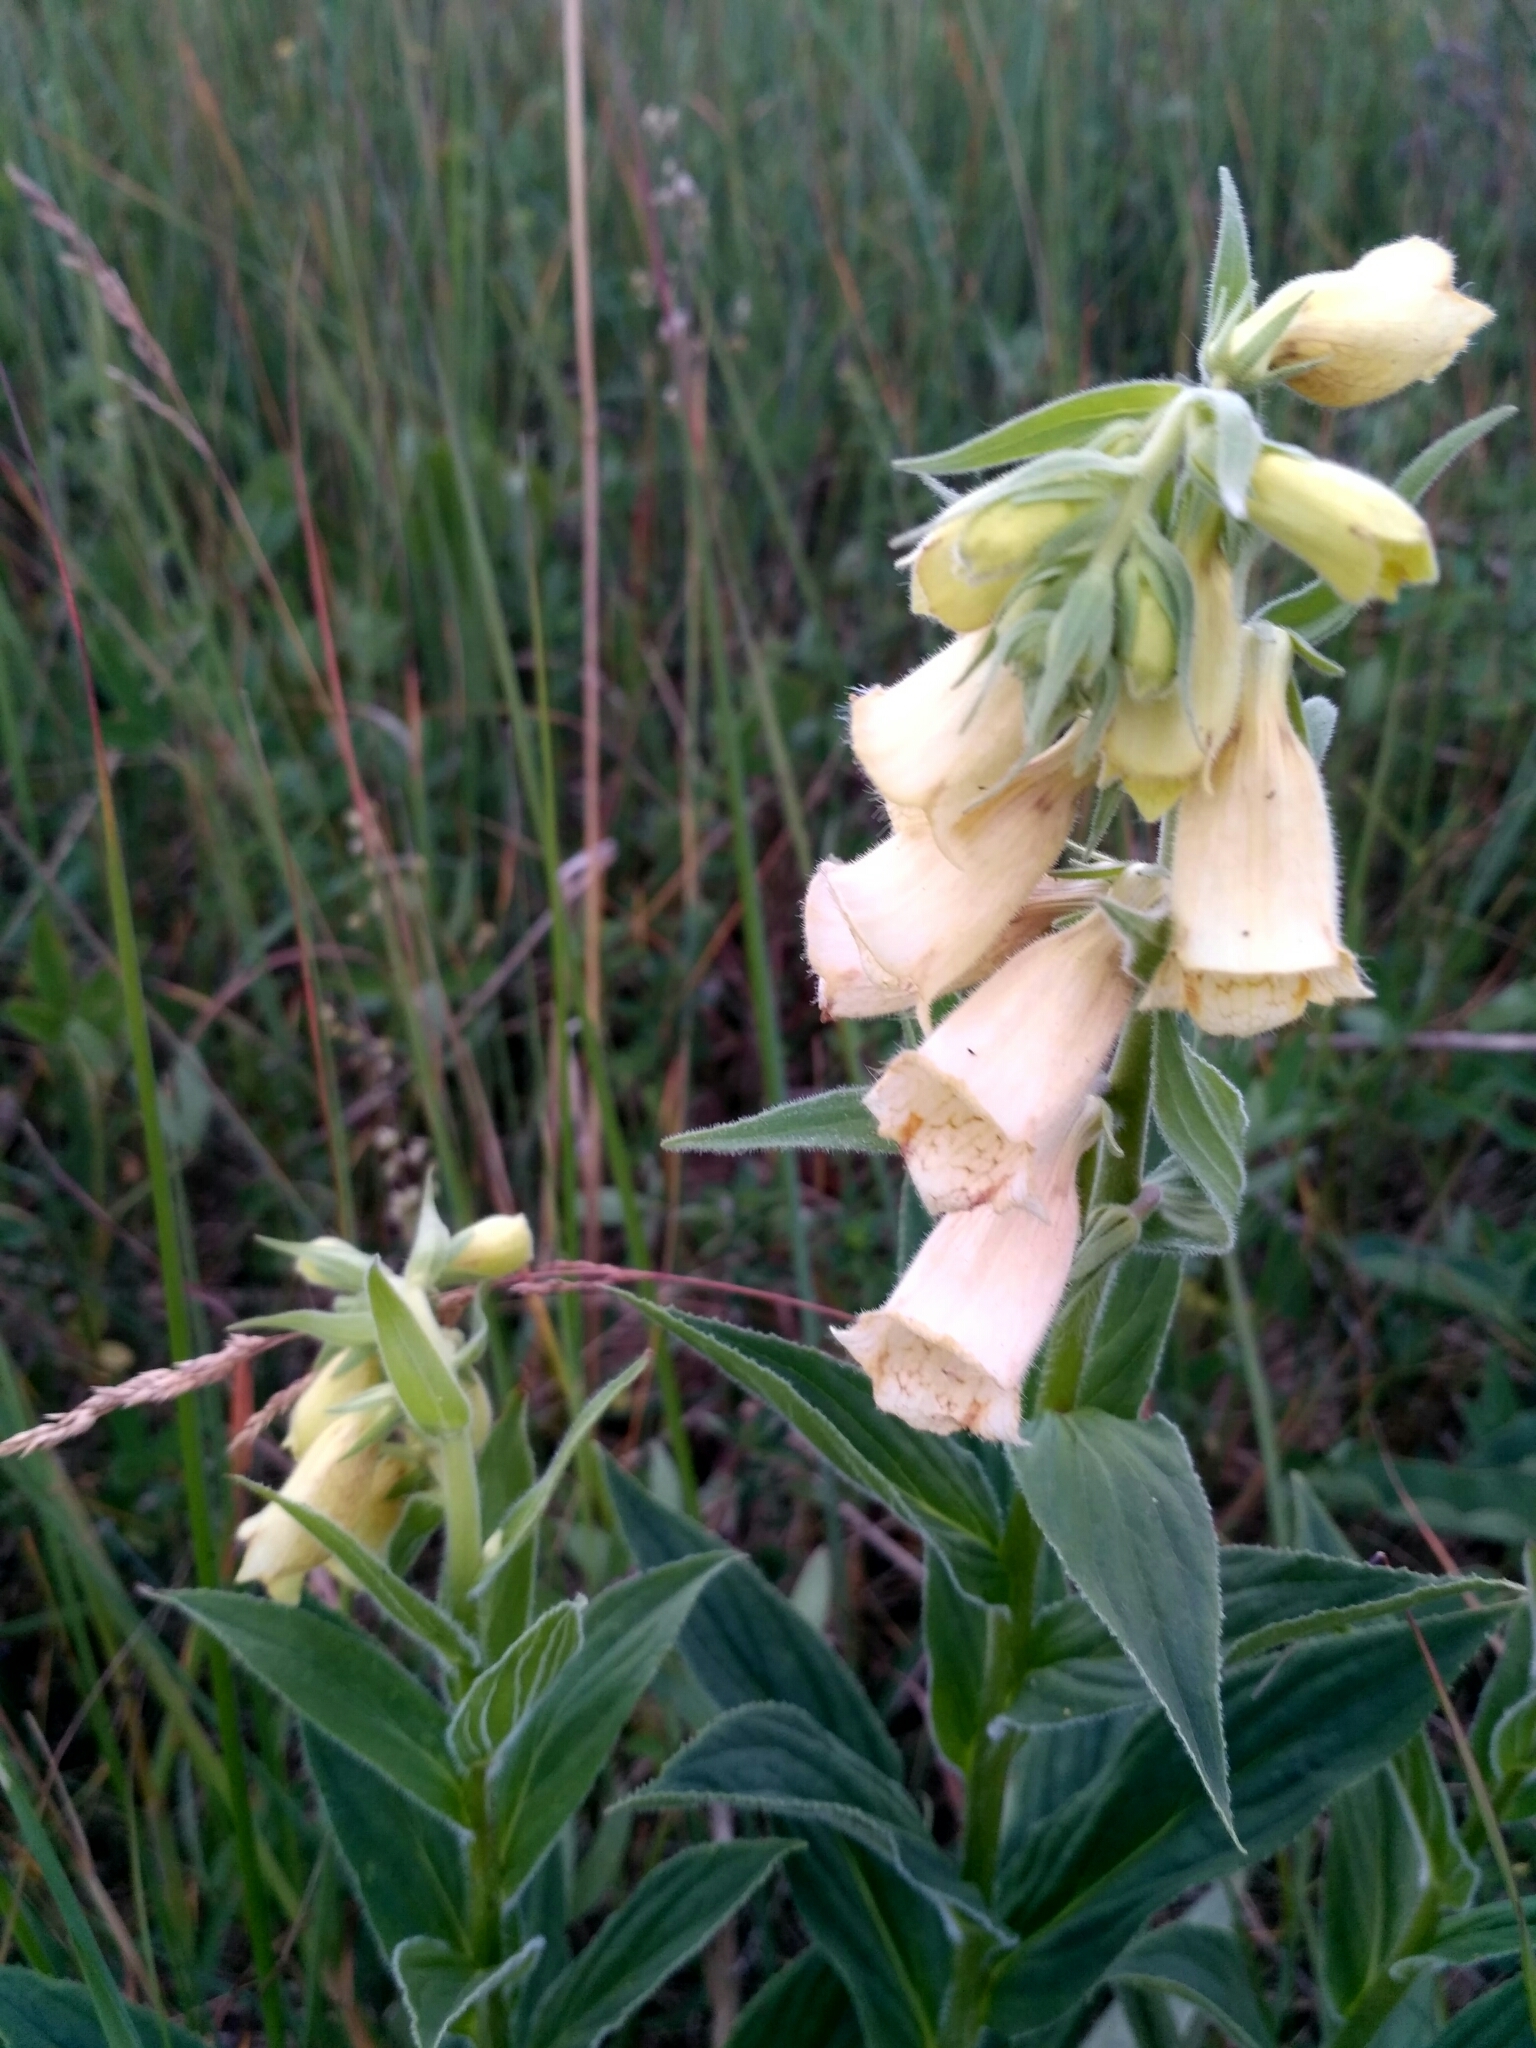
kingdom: Plantae
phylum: Tracheophyta
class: Magnoliopsida
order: Lamiales
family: Plantaginaceae
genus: Digitalis
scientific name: Digitalis grandiflora
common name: Yellow foxglove
